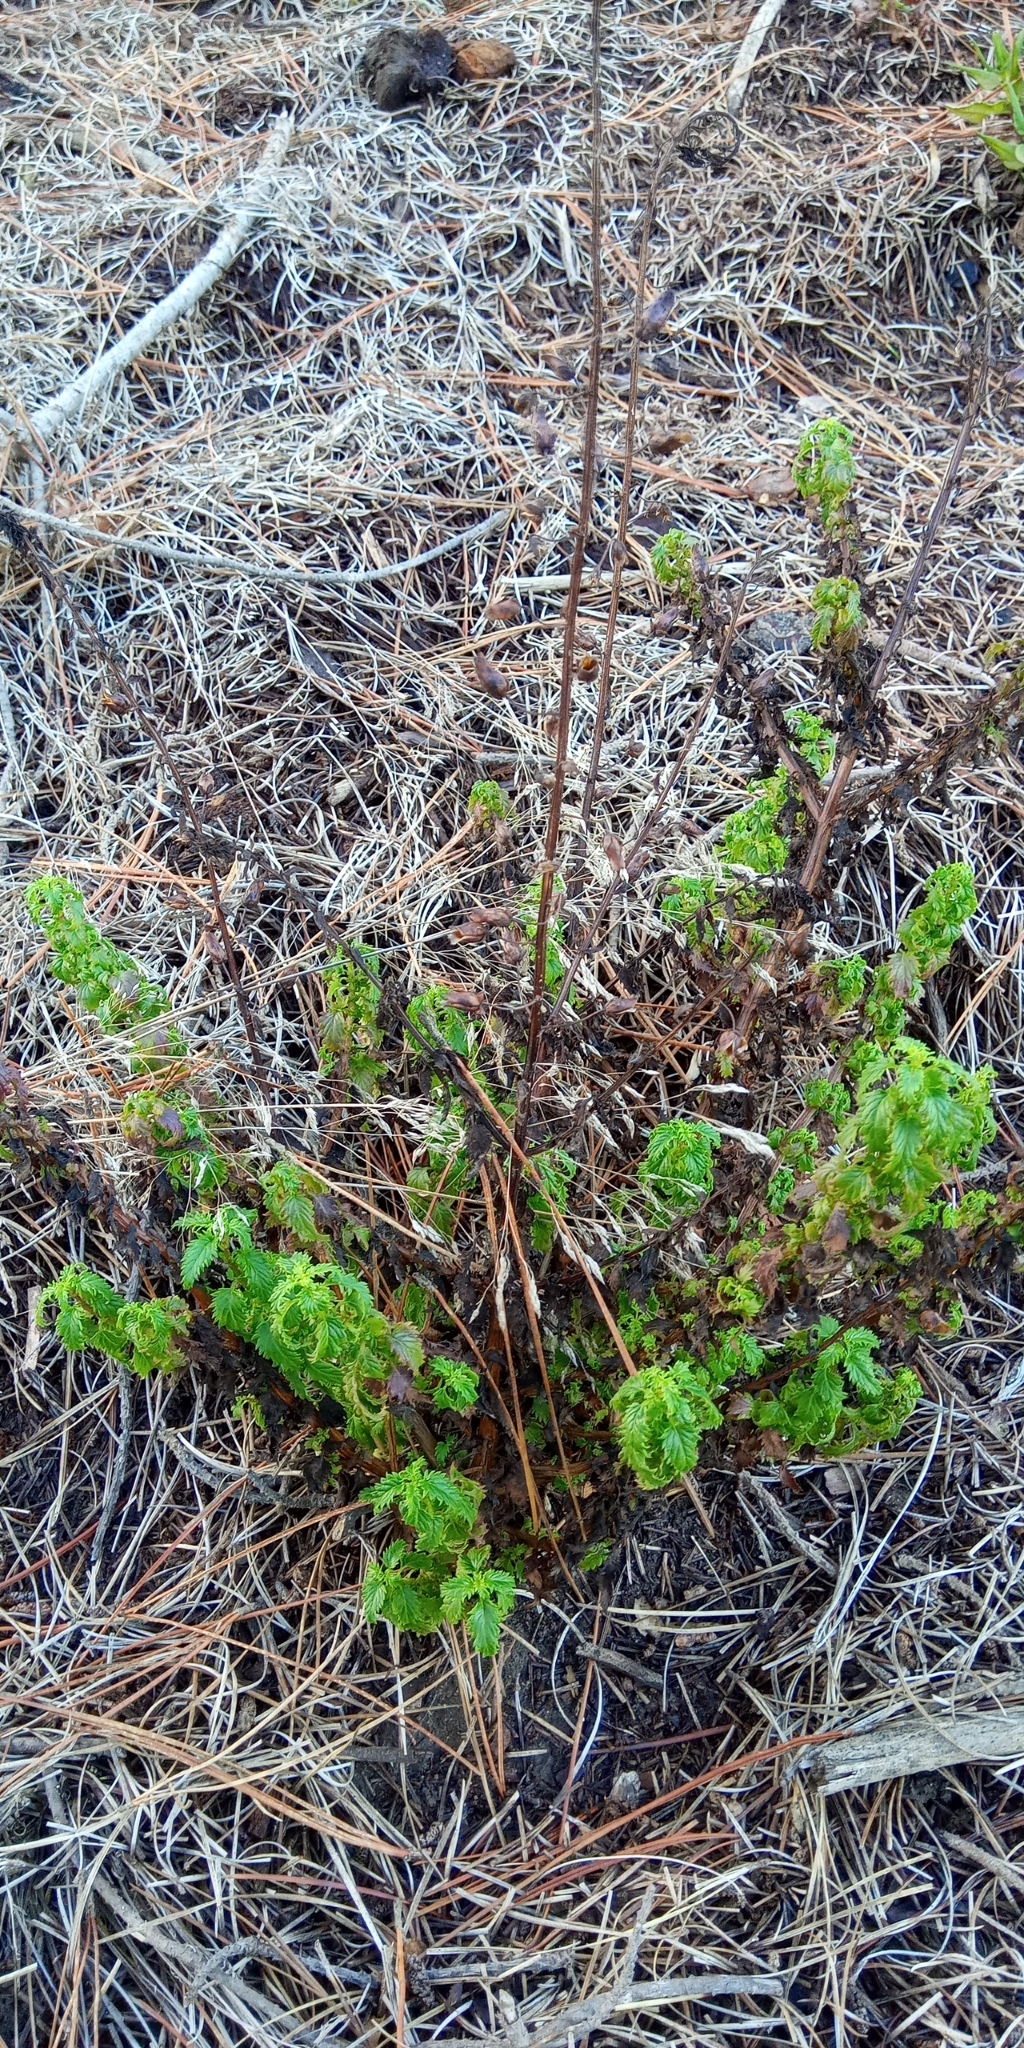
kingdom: Plantae
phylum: Tracheophyta
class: Magnoliopsida
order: Lamiales
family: Scrophulariaceae
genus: Alonsoa
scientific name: Alonsoa meridionalis
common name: Maskflower
